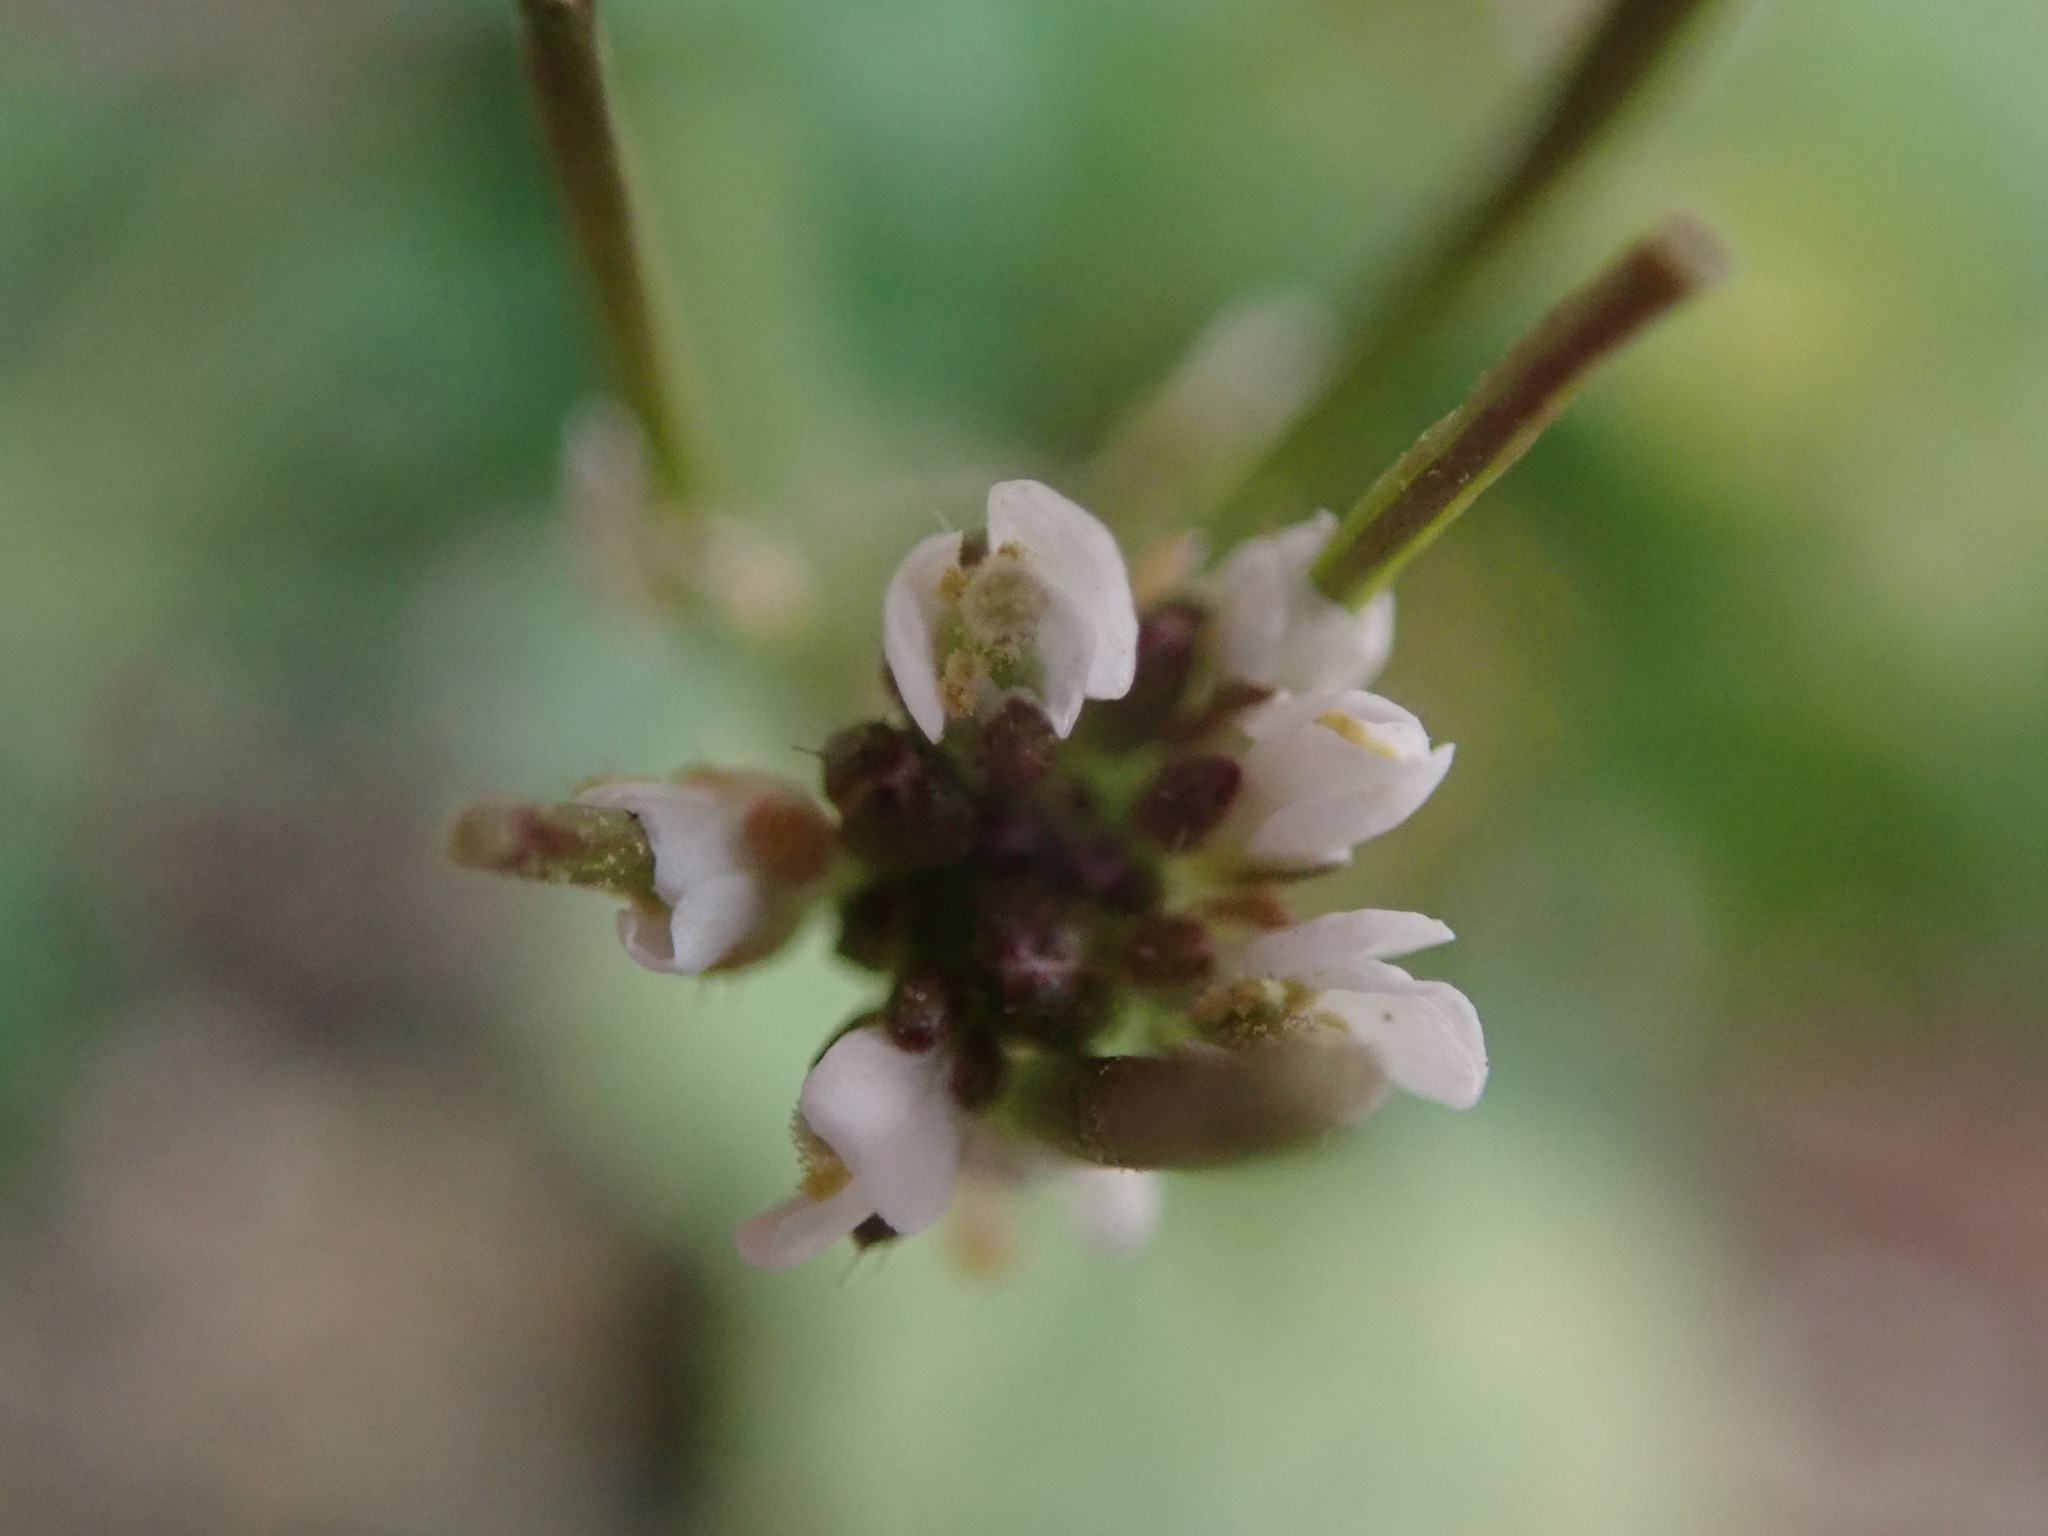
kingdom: Plantae
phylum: Tracheophyta
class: Magnoliopsida
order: Brassicales
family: Brassicaceae
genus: Cardamine
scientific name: Cardamine hirsuta
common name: Hairy bittercress
